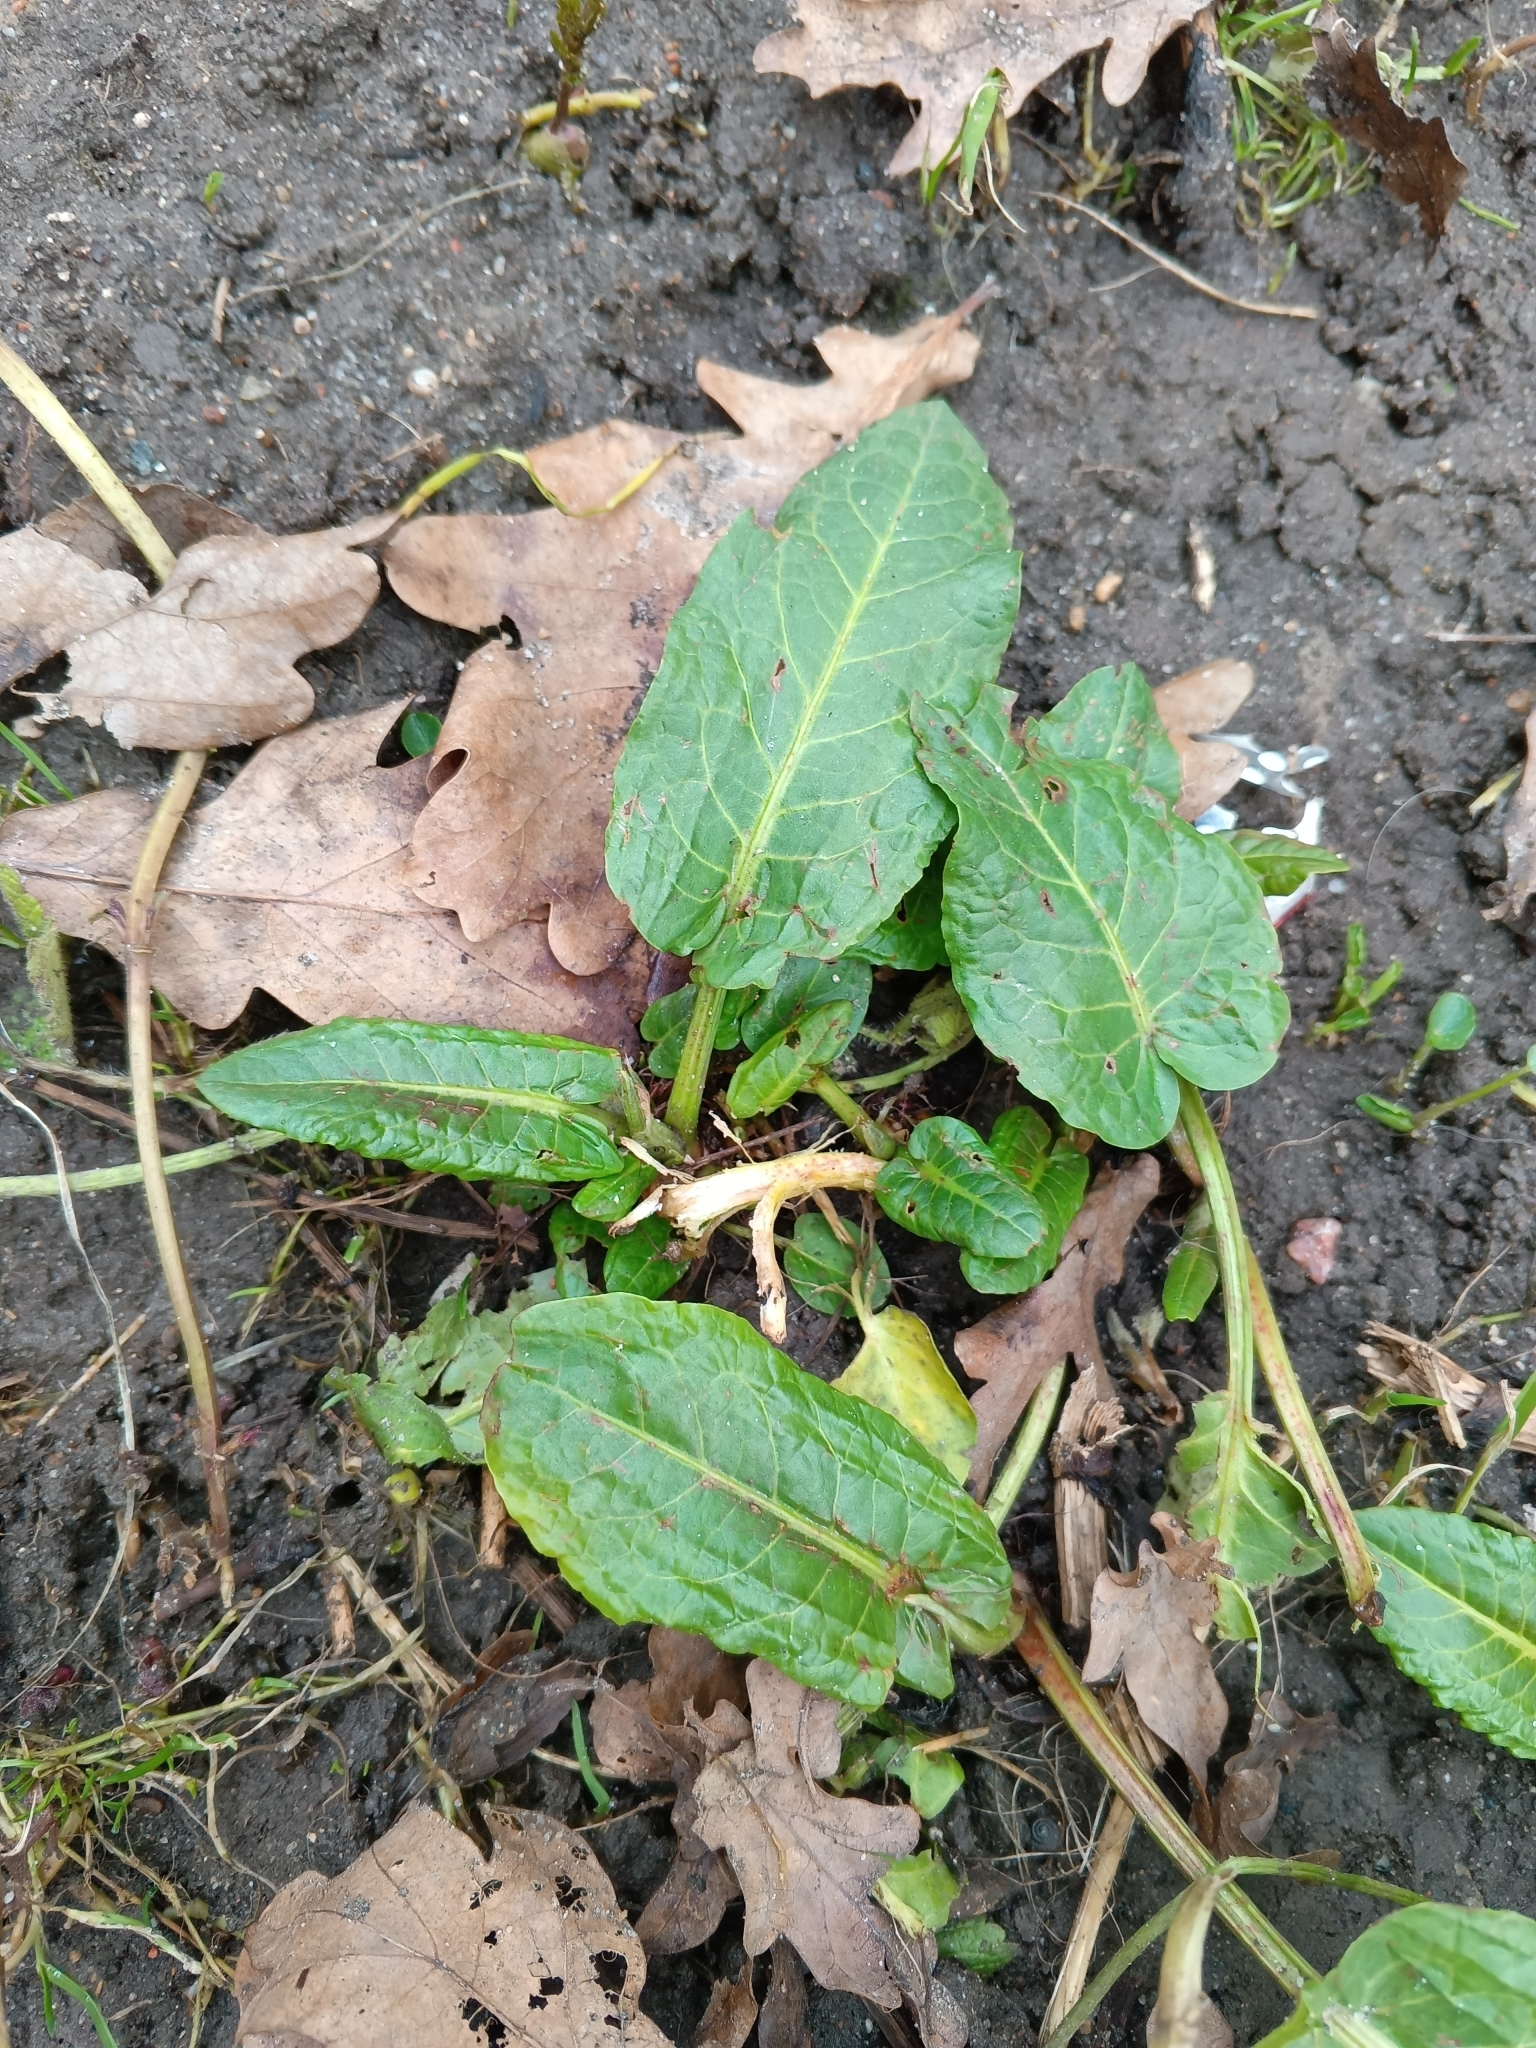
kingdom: Plantae
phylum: Tracheophyta
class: Magnoliopsida
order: Caryophyllales
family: Polygonaceae
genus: Rumex
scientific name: Rumex obtusifolius
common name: Bitter dock
